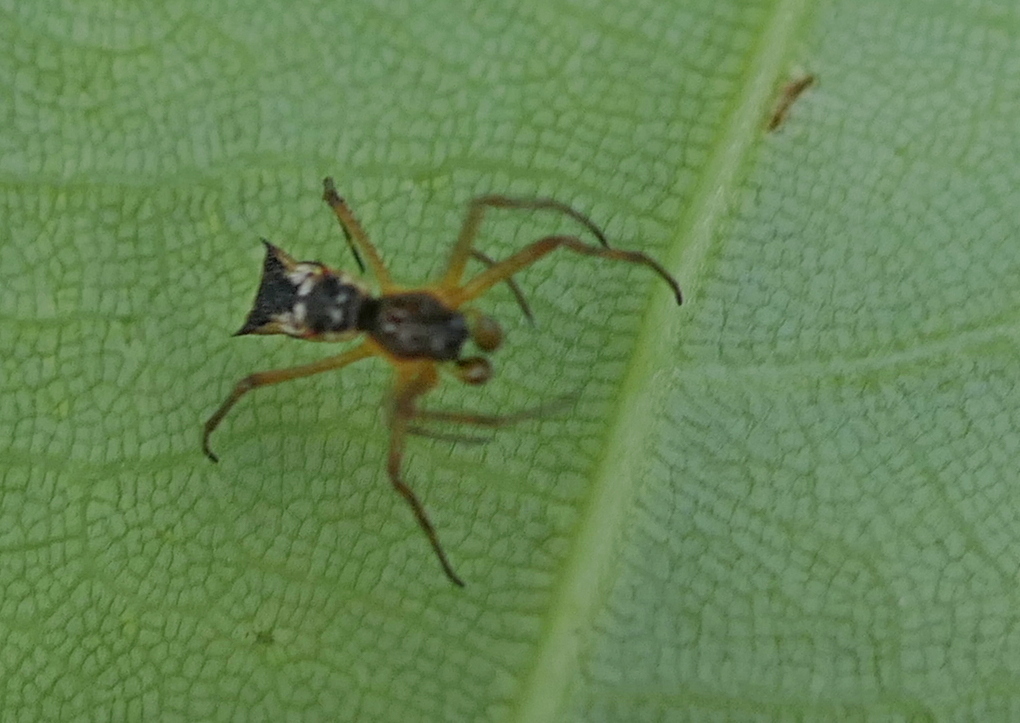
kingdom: Animalia
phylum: Arthropoda
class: Arachnida
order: Araneae
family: Araneidae
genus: Micrathena
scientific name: Micrathena fissispina
